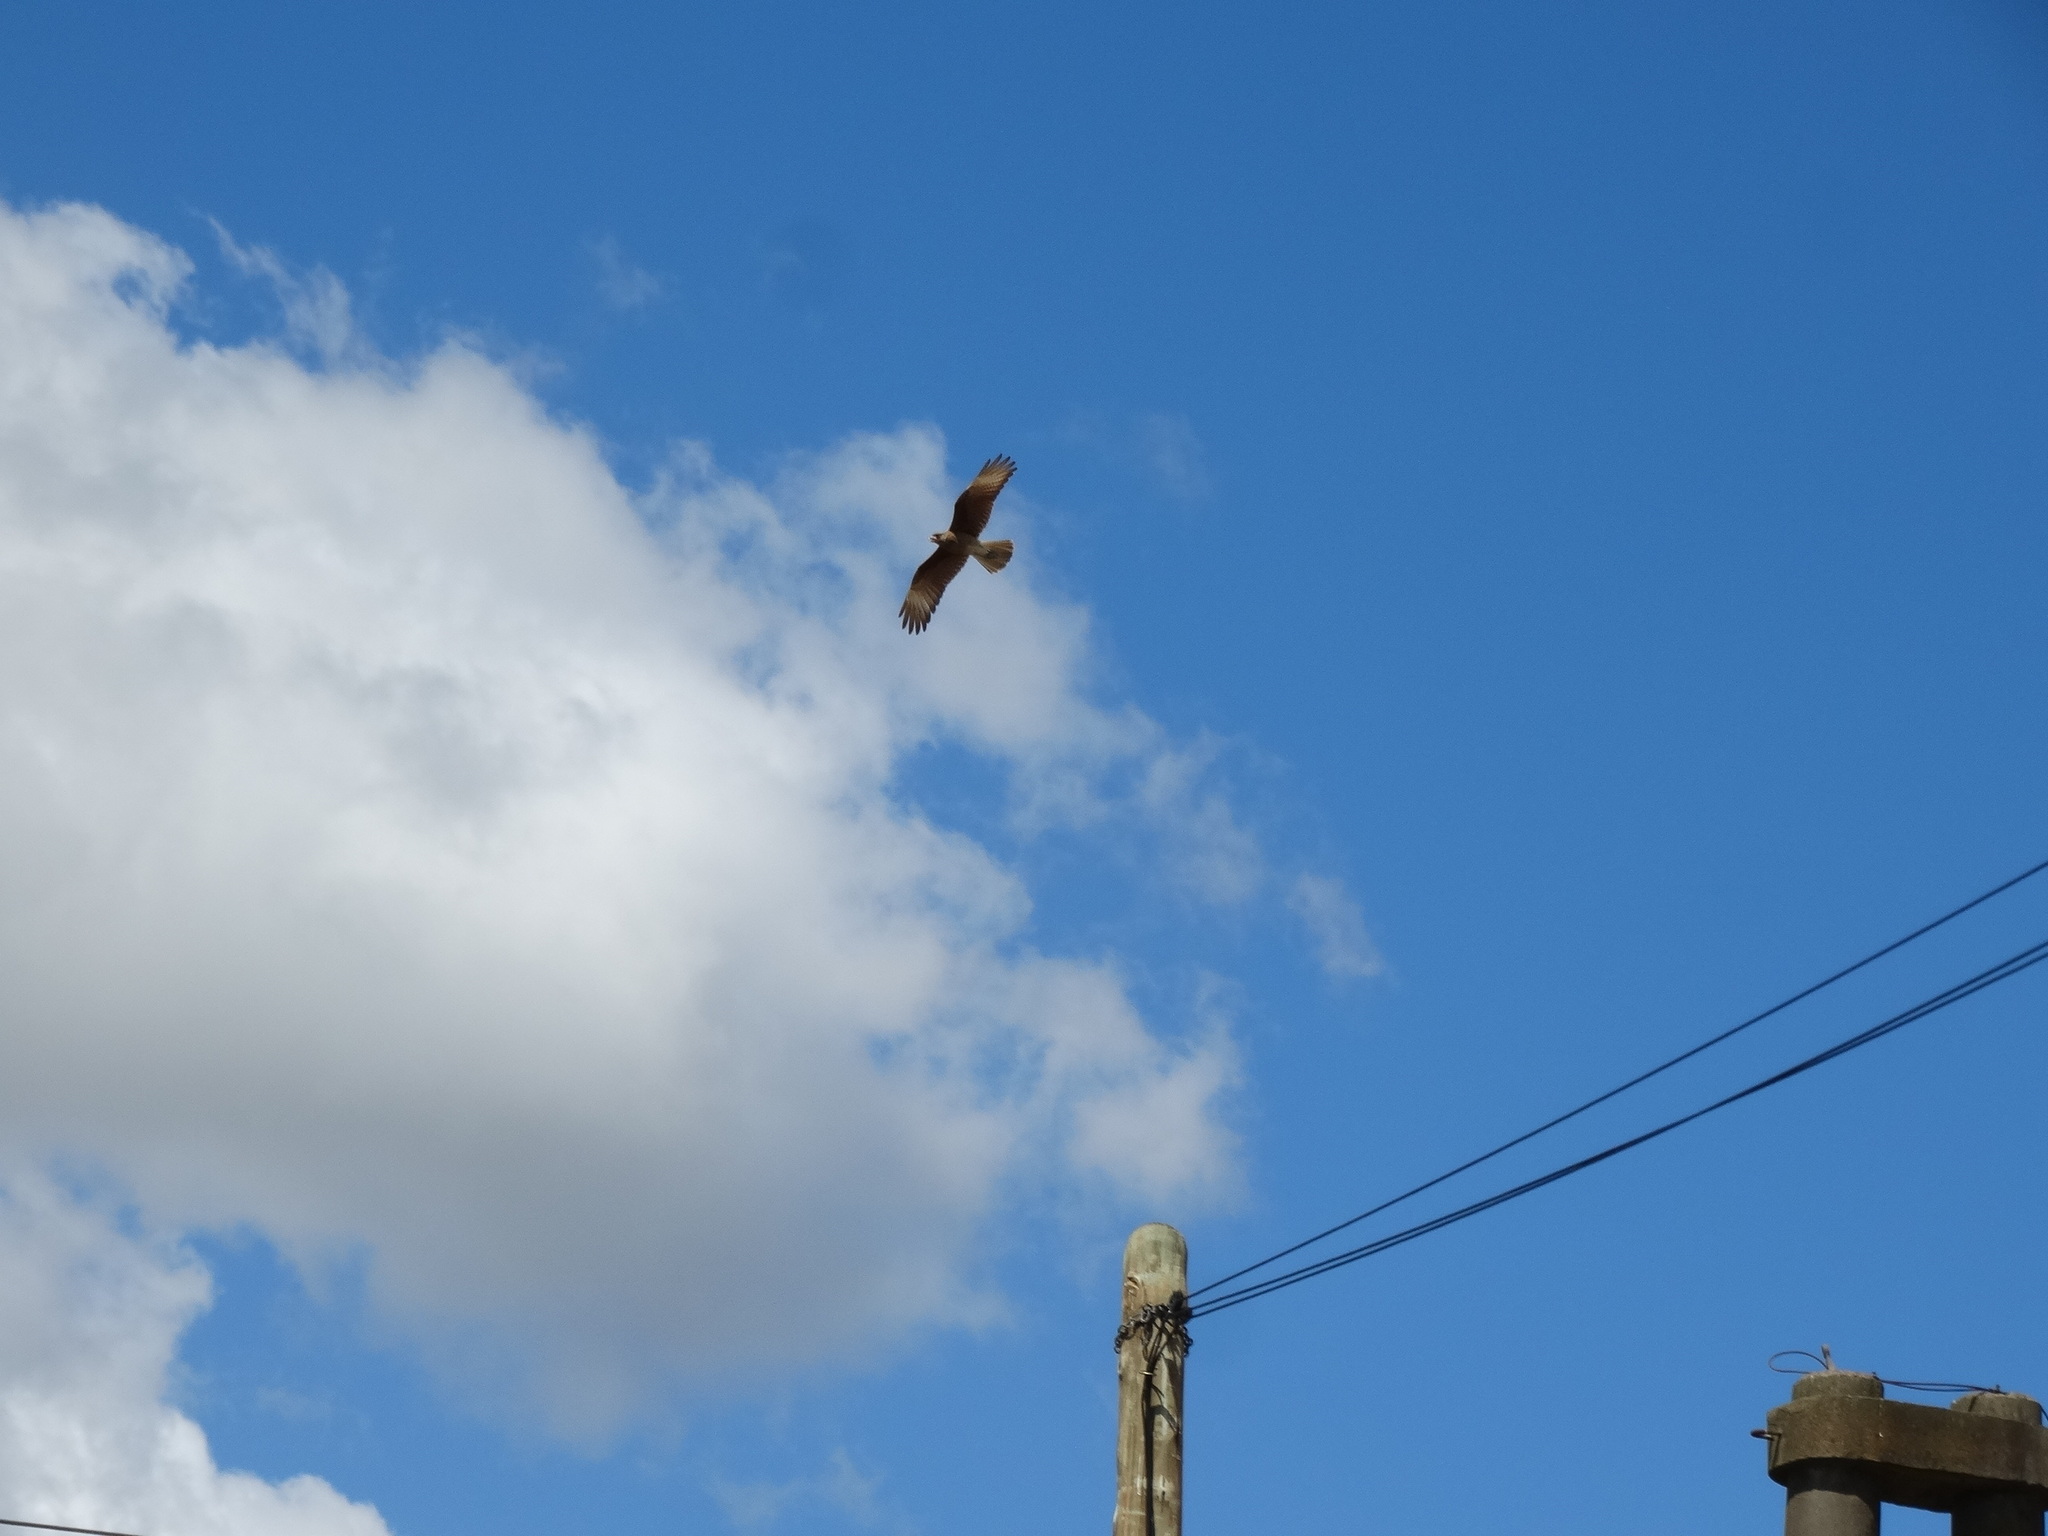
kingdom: Animalia
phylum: Chordata
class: Aves
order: Falconiformes
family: Falconidae
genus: Daptrius
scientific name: Daptrius
